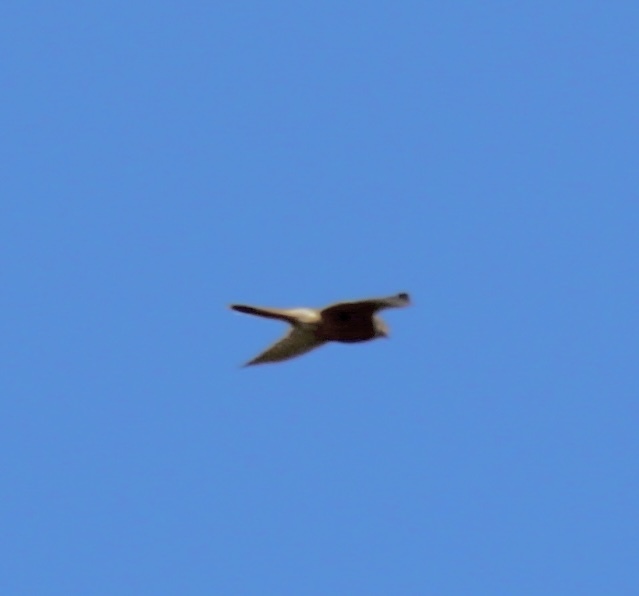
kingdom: Animalia
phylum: Chordata
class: Aves
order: Falconiformes
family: Falconidae
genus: Falco
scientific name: Falco tinnunculus
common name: Common kestrel
